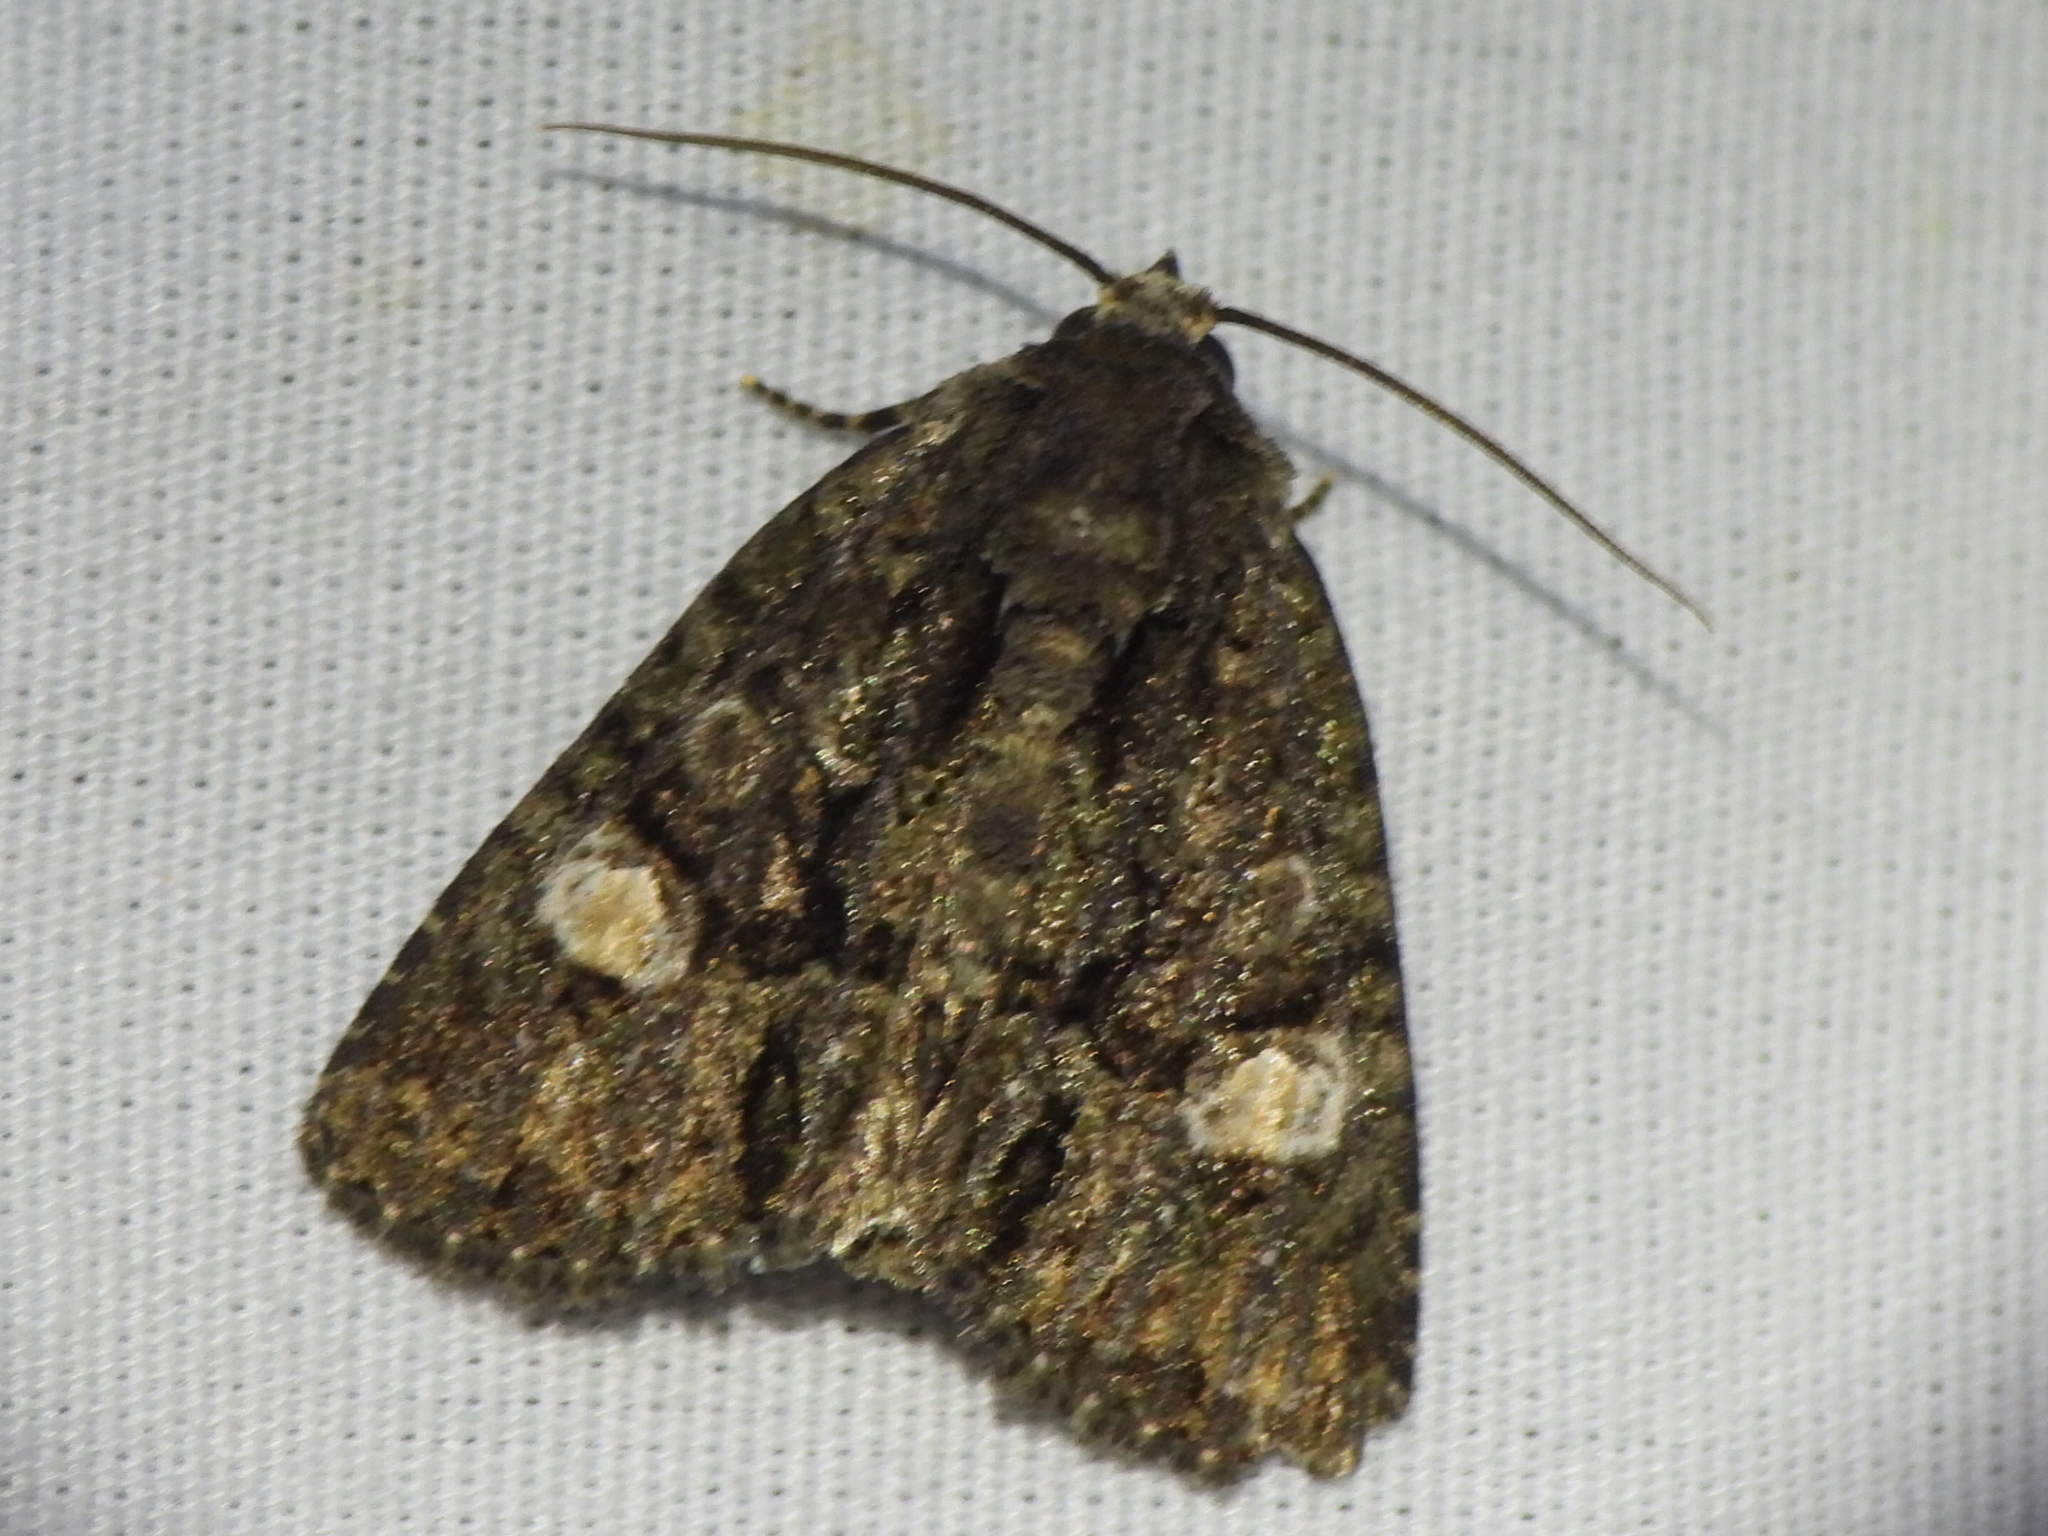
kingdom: Animalia
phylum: Arthropoda
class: Insecta
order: Lepidoptera
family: Noctuidae
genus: Phosphila
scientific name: Phosphila miselioides
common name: Spotted phosphila moth
